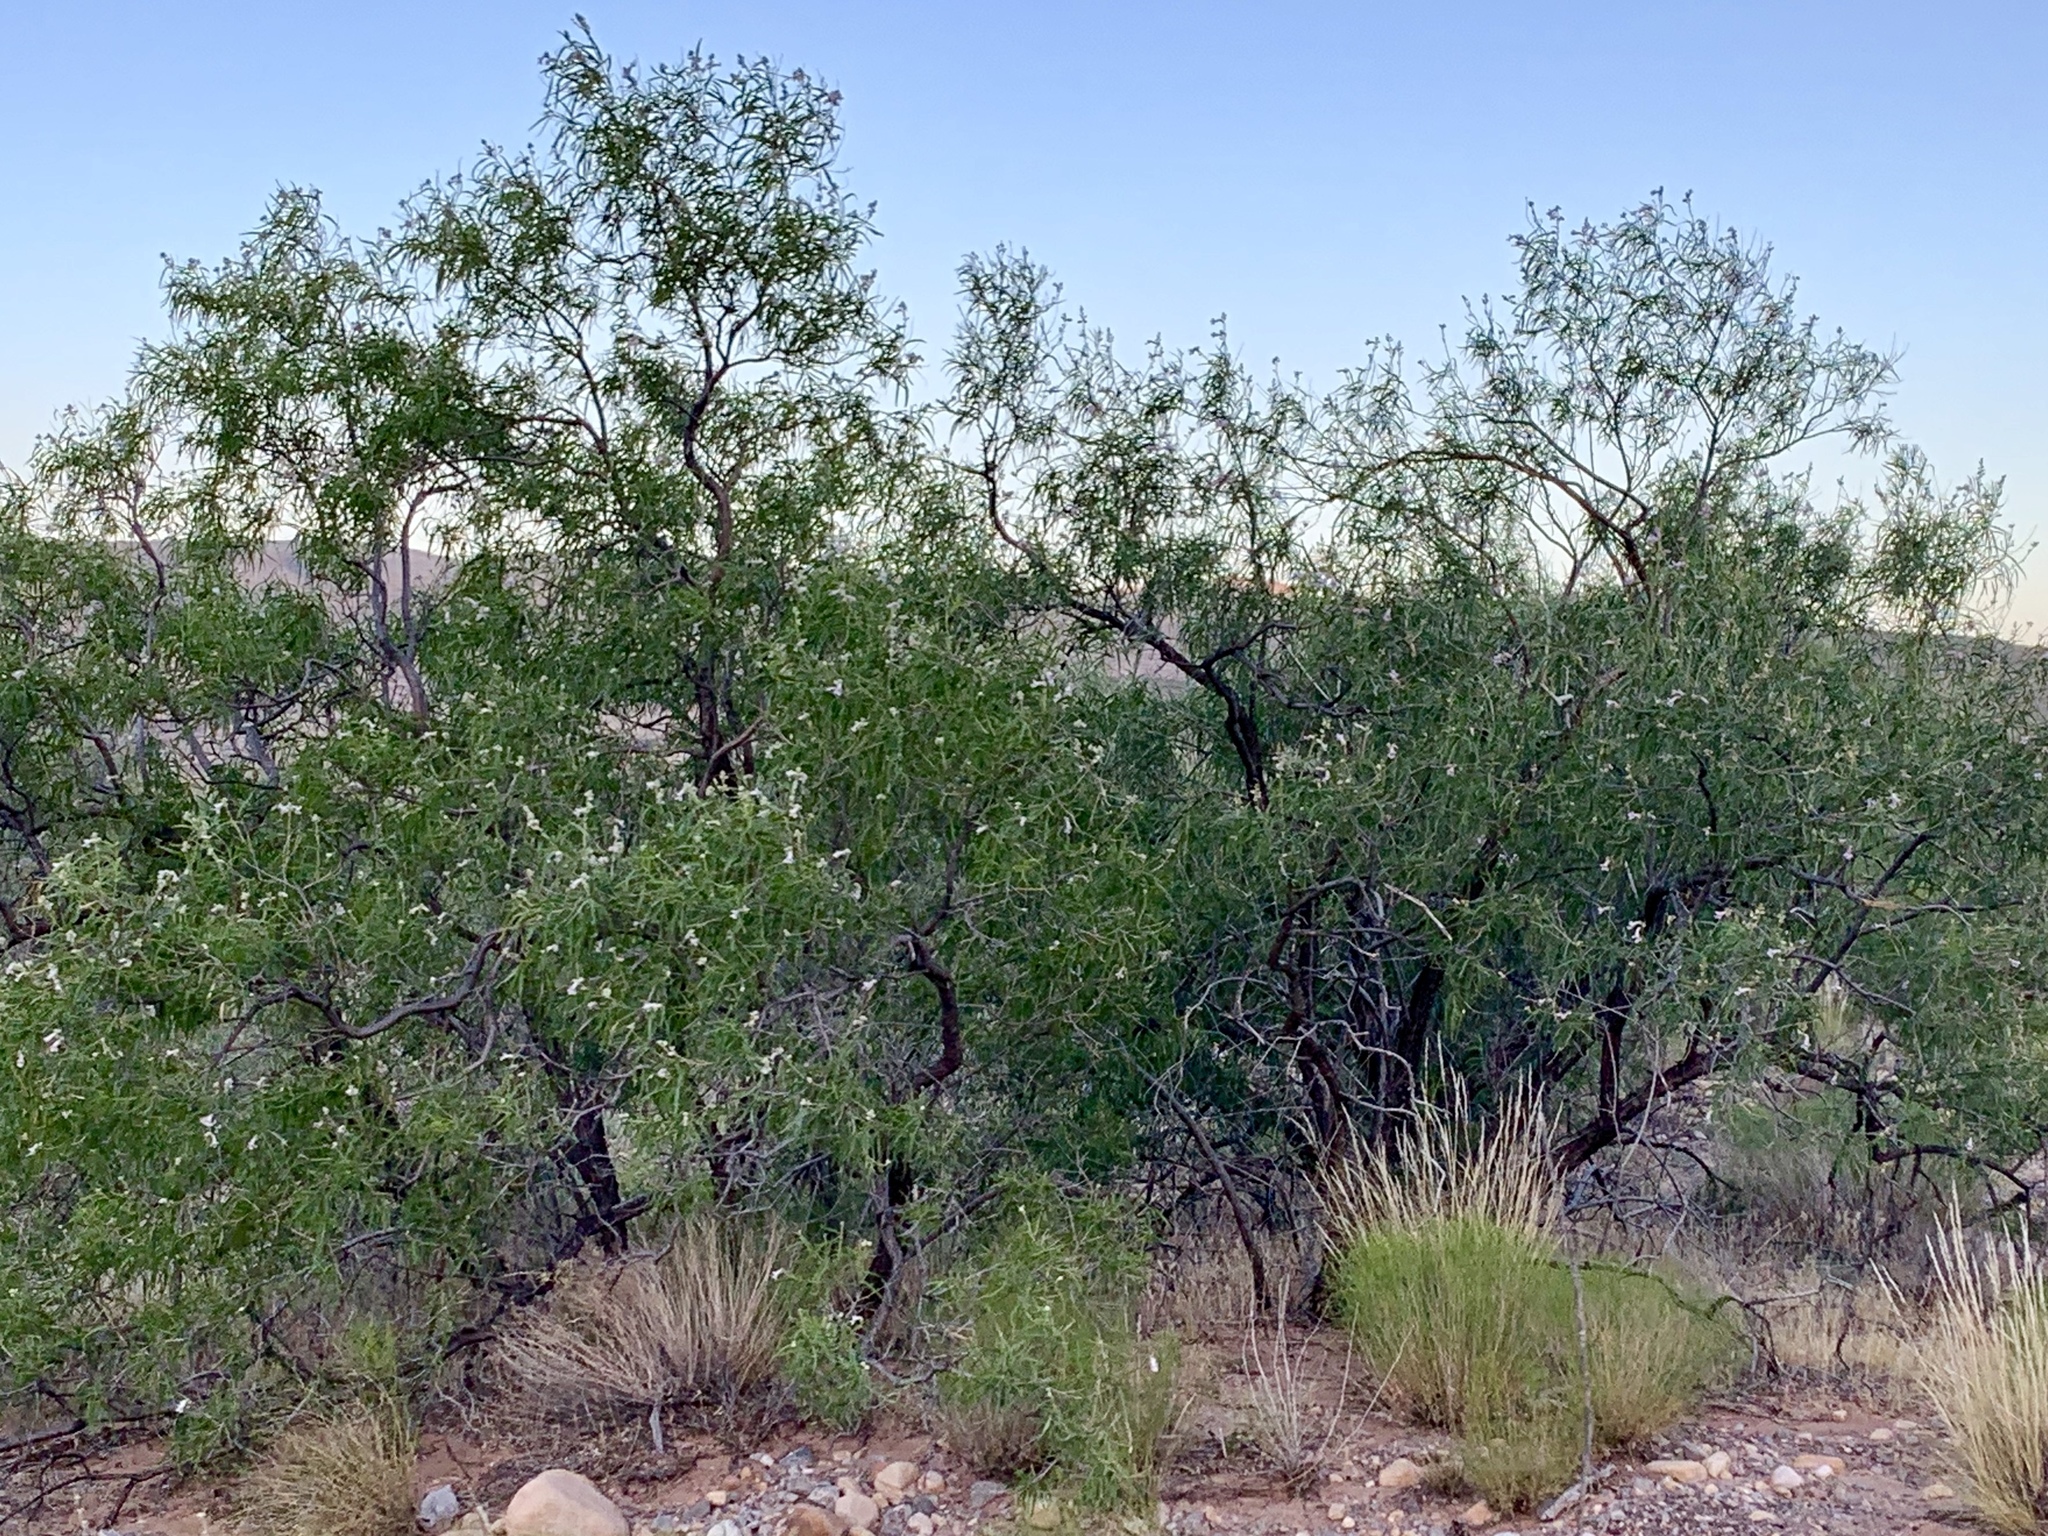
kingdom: Plantae
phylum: Tracheophyta
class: Magnoliopsida
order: Lamiales
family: Bignoniaceae
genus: Chilopsis
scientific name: Chilopsis linearis
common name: Desert-willow
